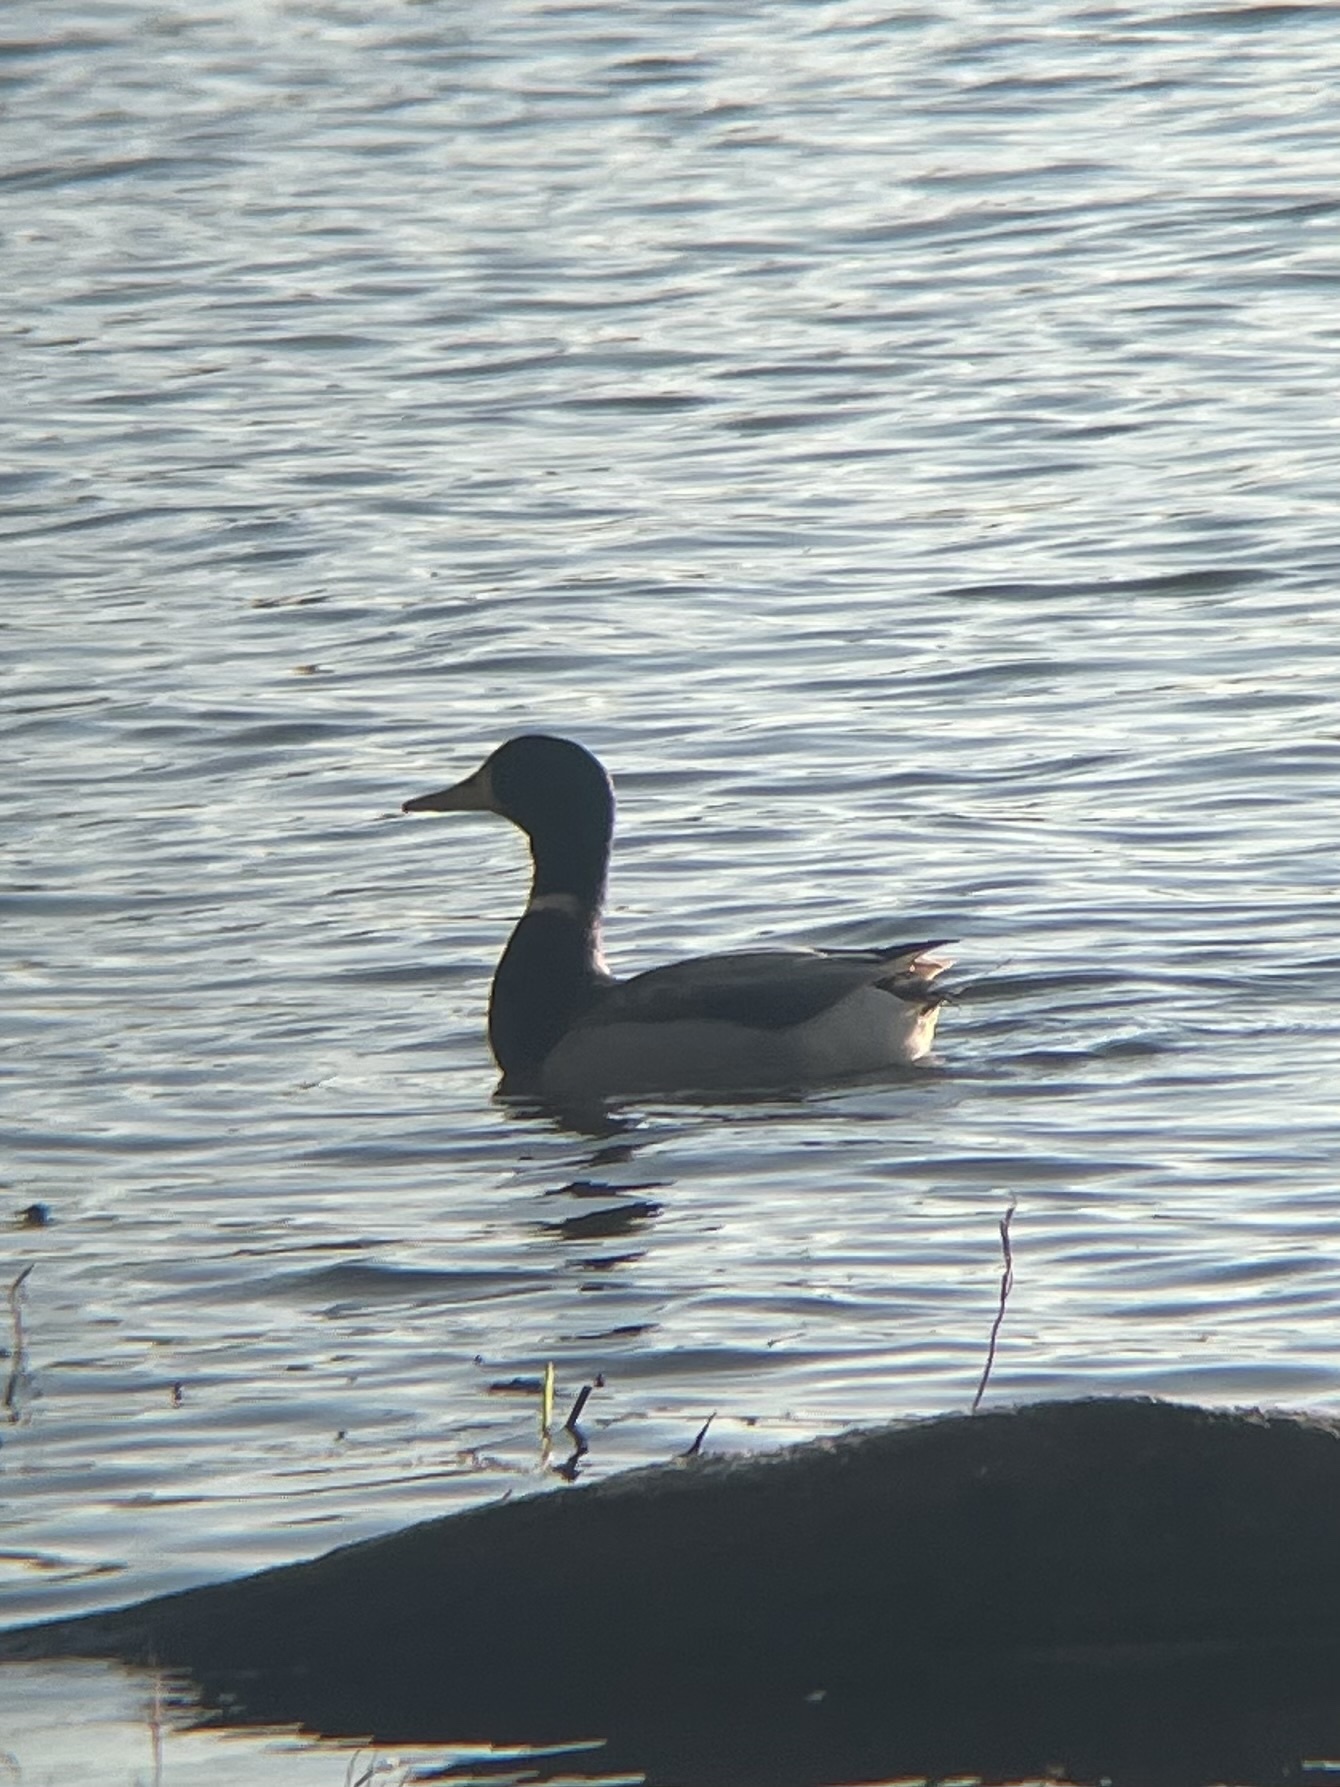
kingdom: Animalia
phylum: Chordata
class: Aves
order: Anseriformes
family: Anatidae
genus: Anas
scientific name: Anas platyrhynchos
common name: Mallard
